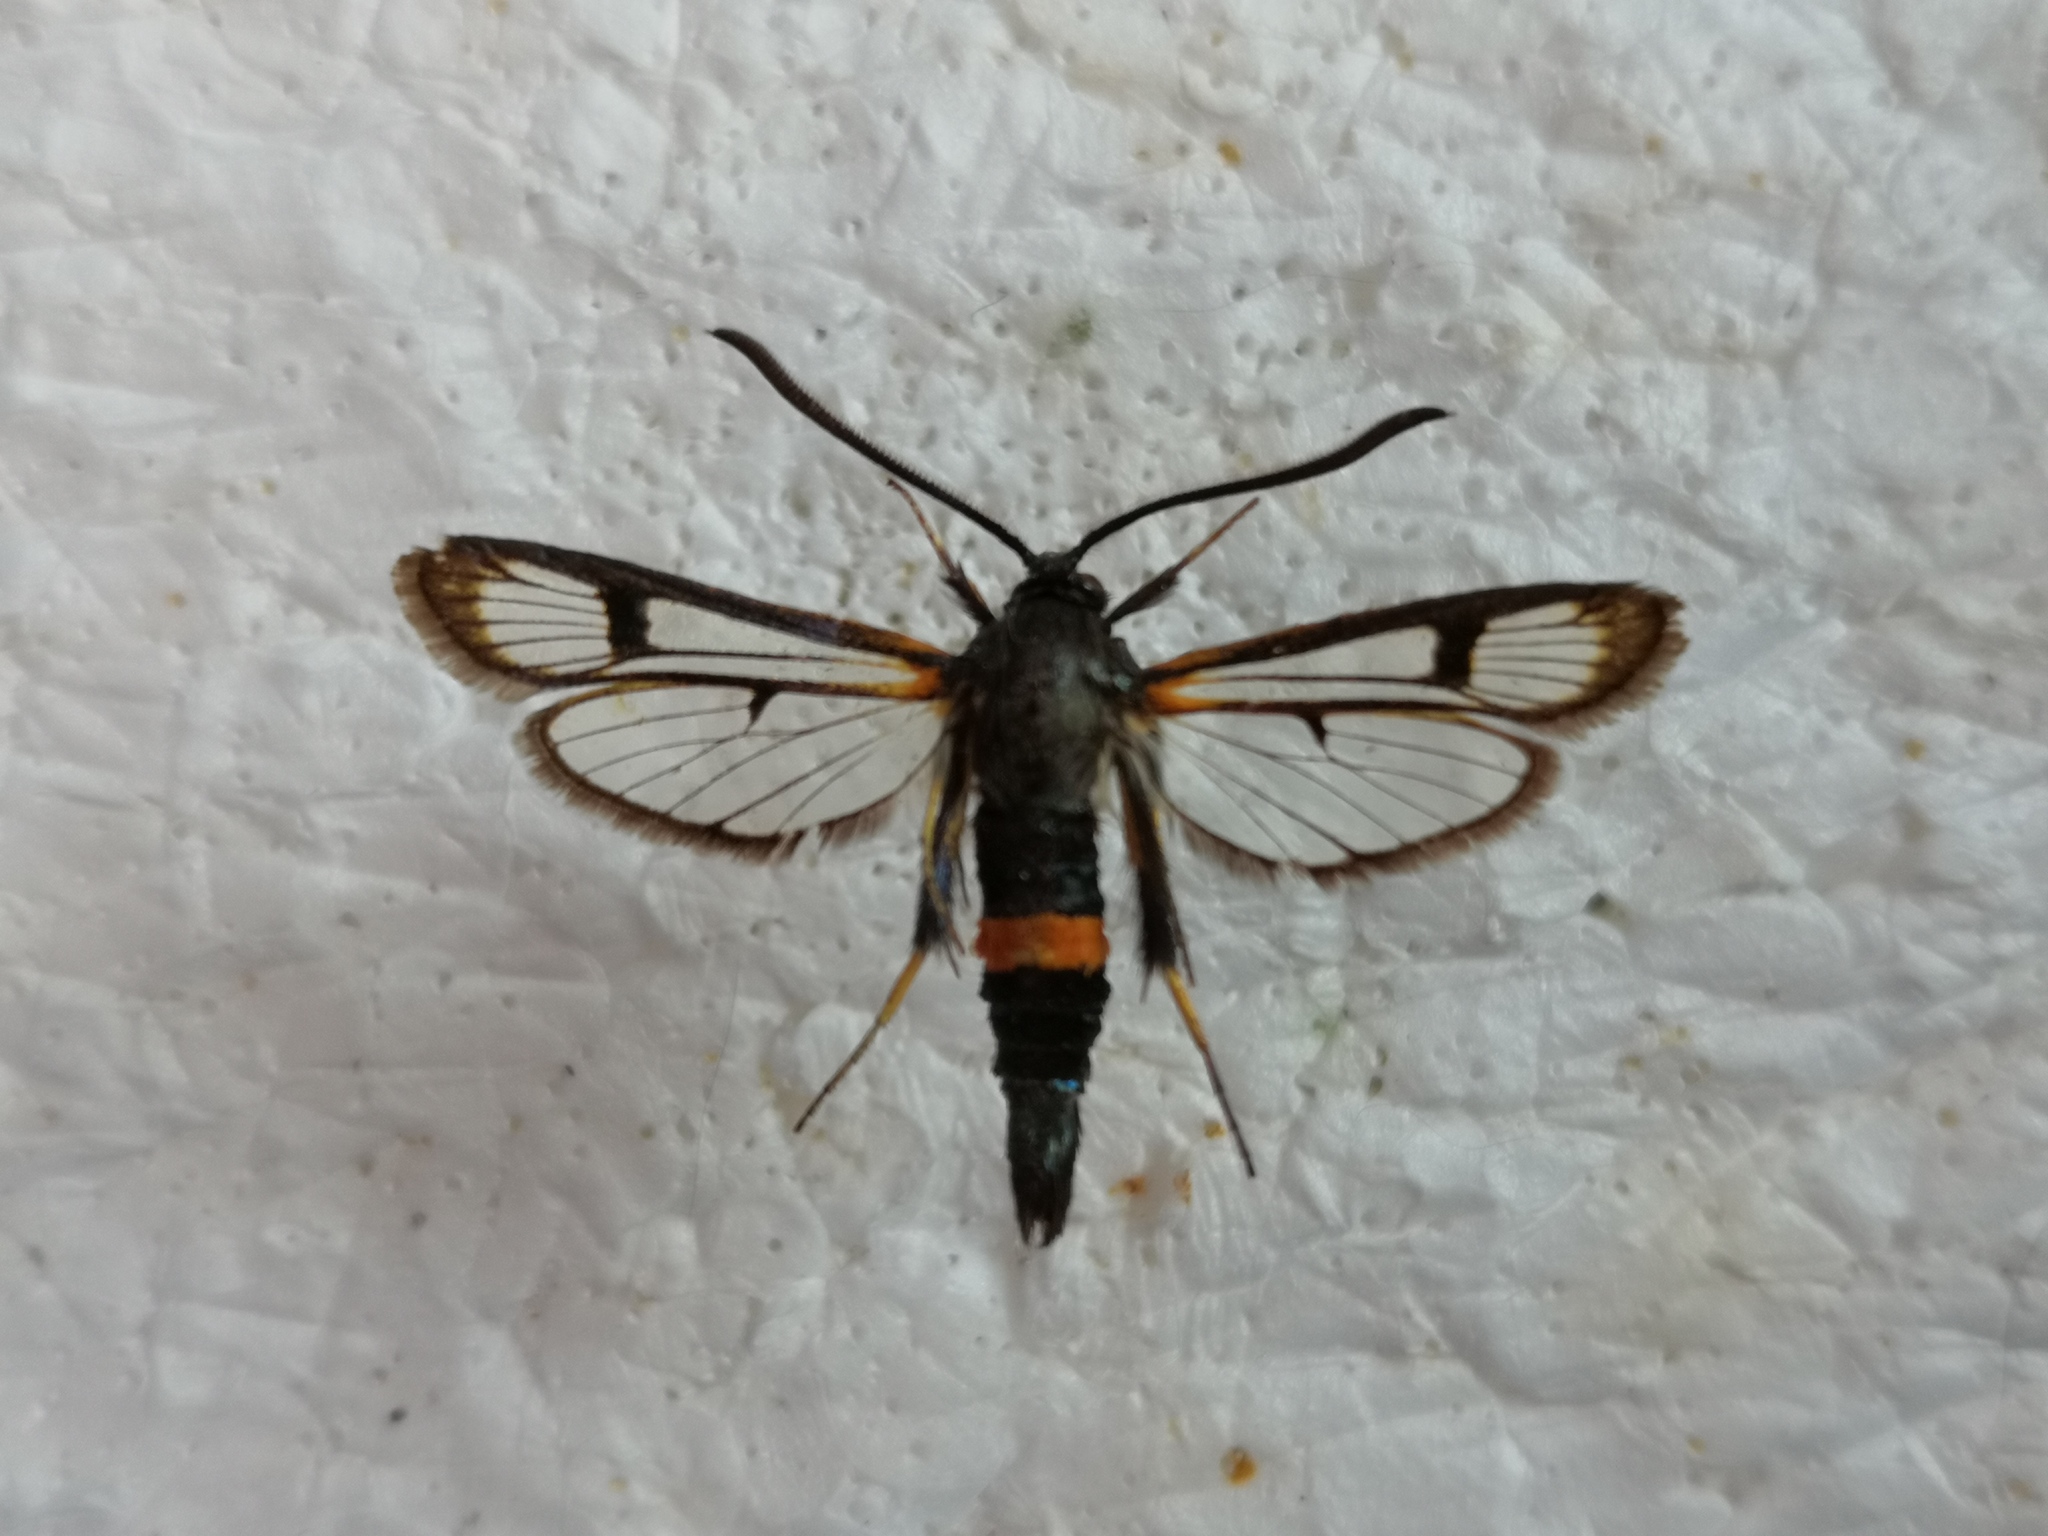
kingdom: Animalia
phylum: Arthropoda
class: Insecta
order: Lepidoptera
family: Sesiidae
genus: Synanthedon
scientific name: Synanthedon culiciformis
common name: Large red-belted clearwing
